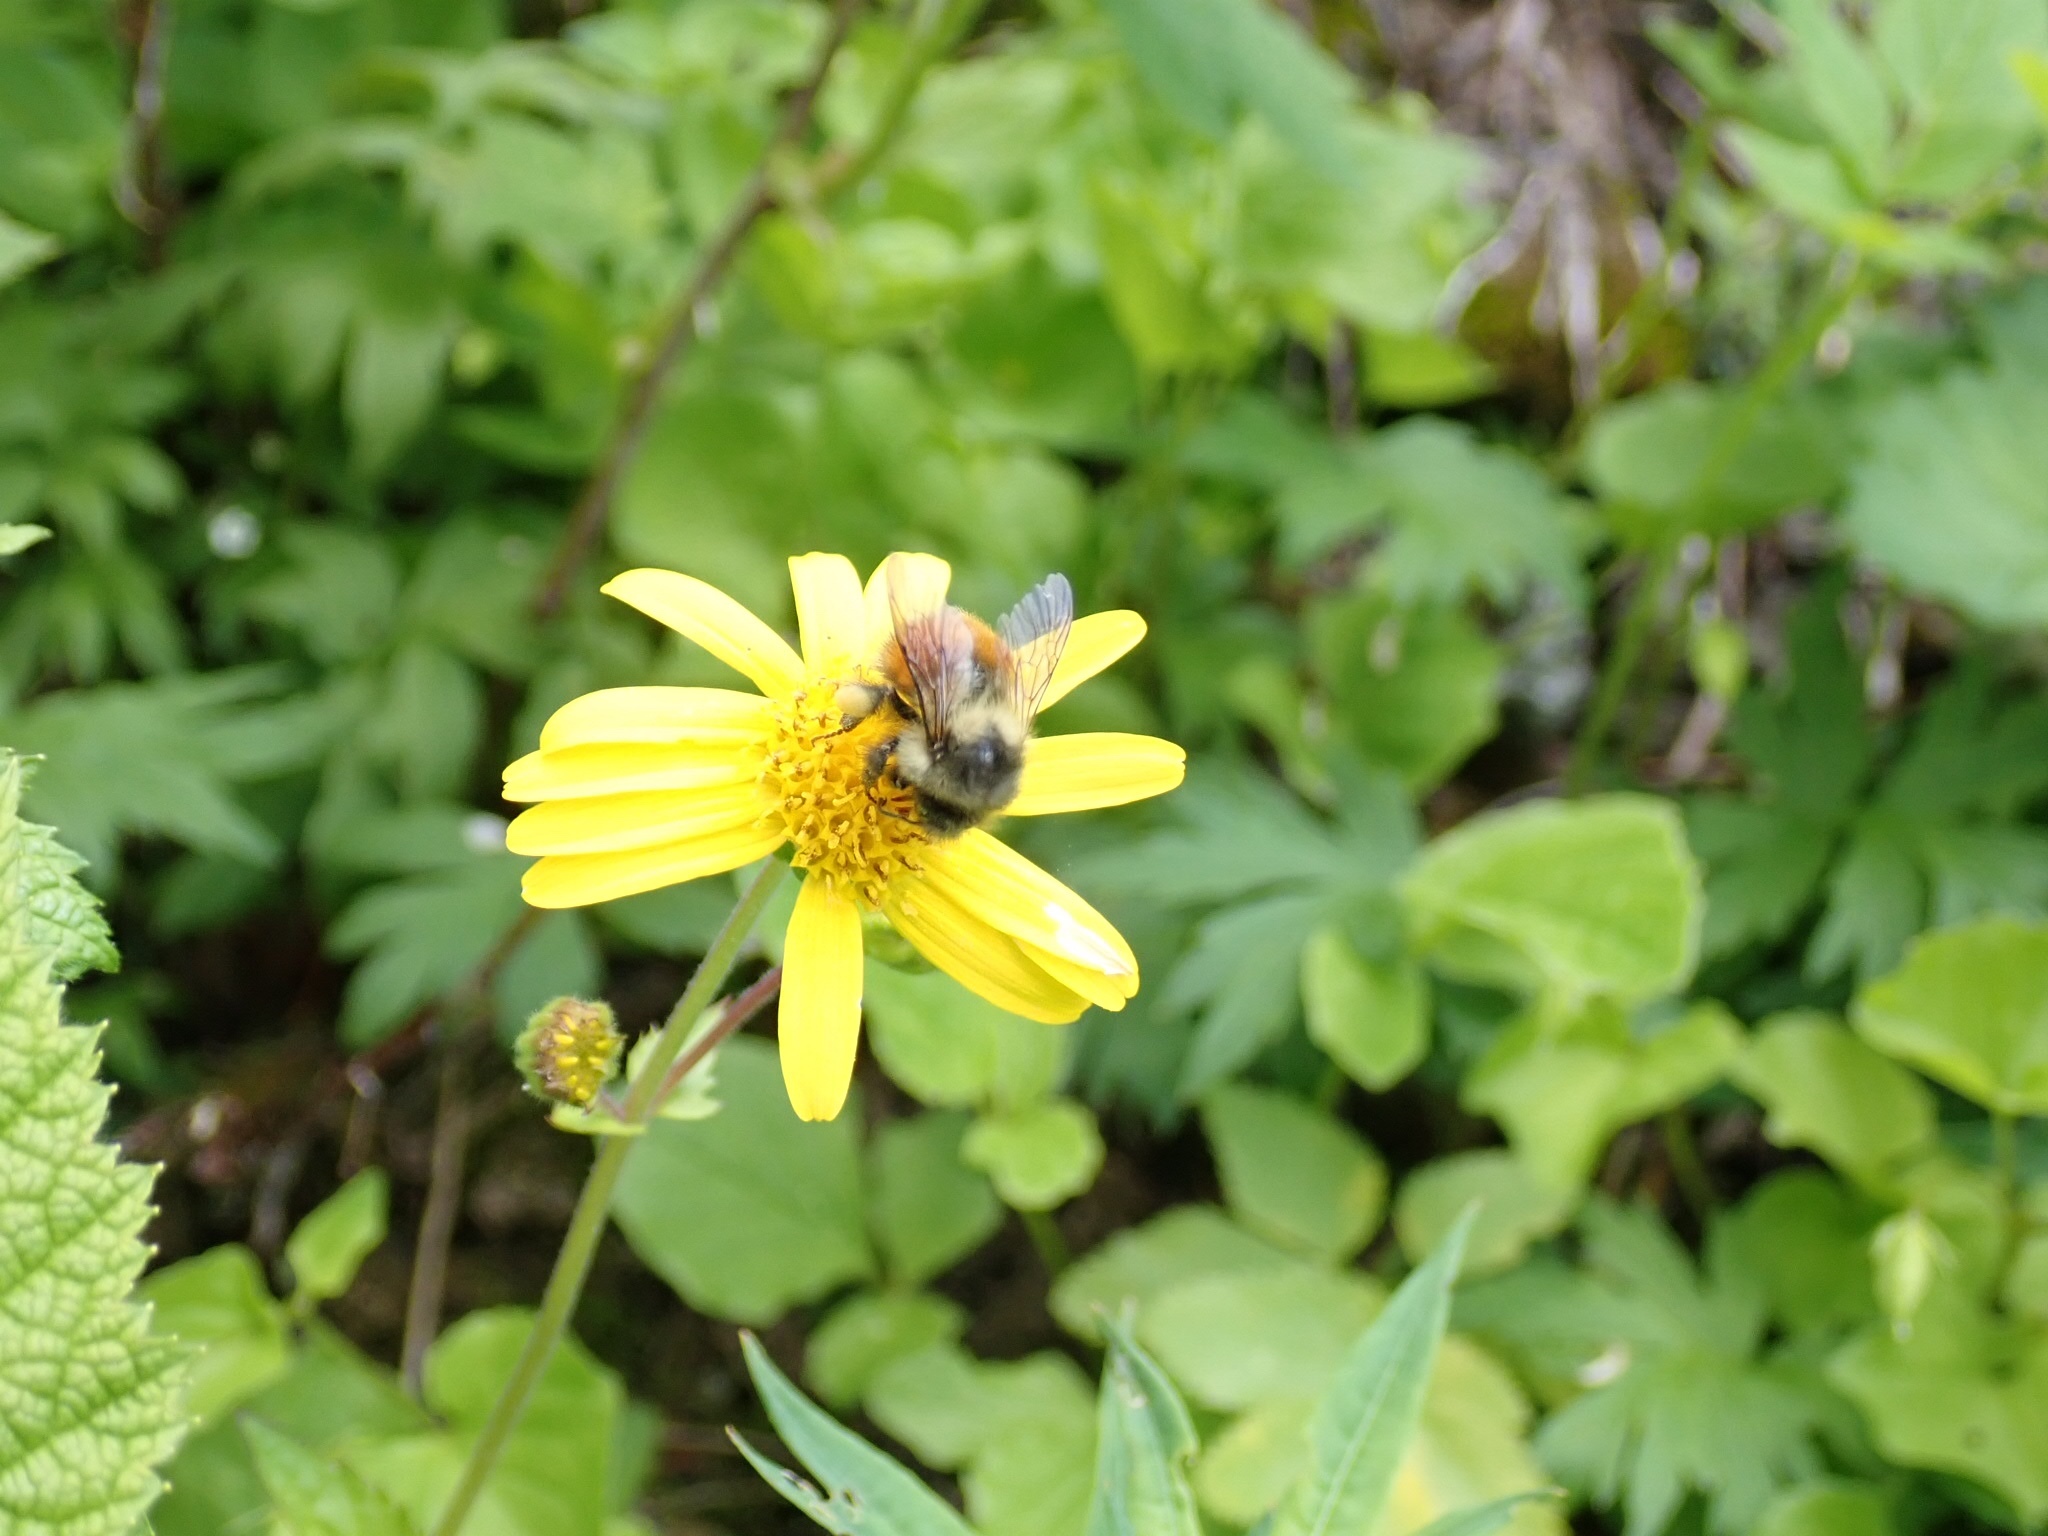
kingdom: Animalia
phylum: Arthropoda
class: Insecta
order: Hymenoptera
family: Apidae
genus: Bombus
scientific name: Bombus melanopygus
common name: Black tail bumble bee
